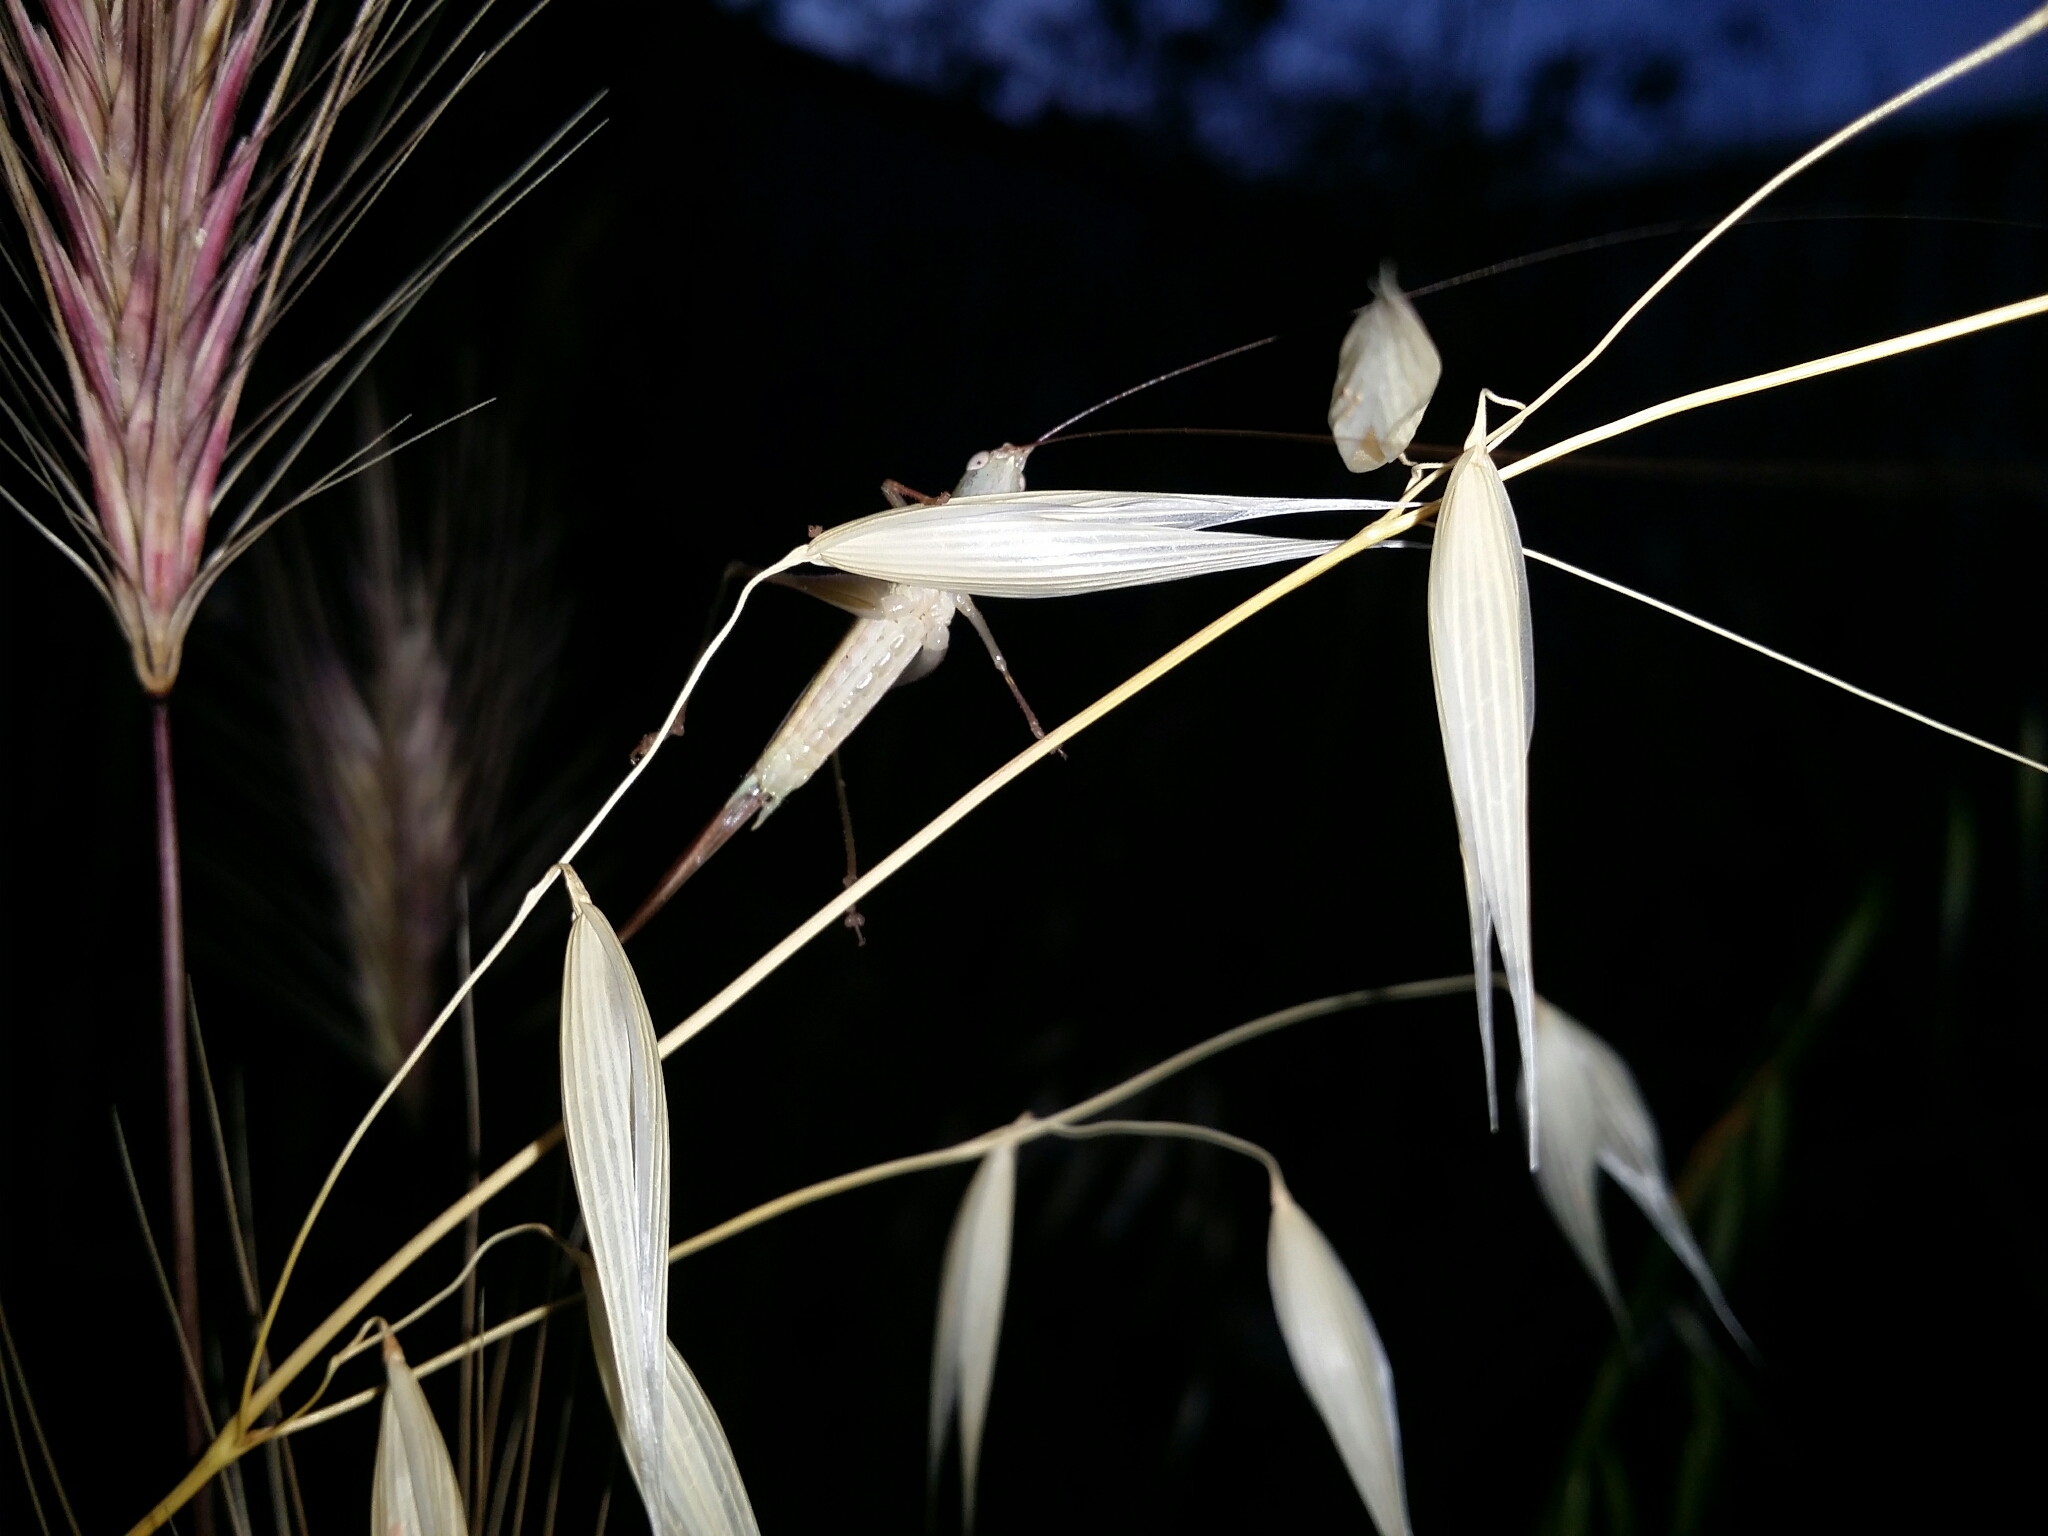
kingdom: Animalia
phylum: Arthropoda
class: Insecta
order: Orthoptera
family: Tettigoniidae
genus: Conocephalus
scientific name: Conocephalus upoluensis
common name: Upolu meadow katydid
